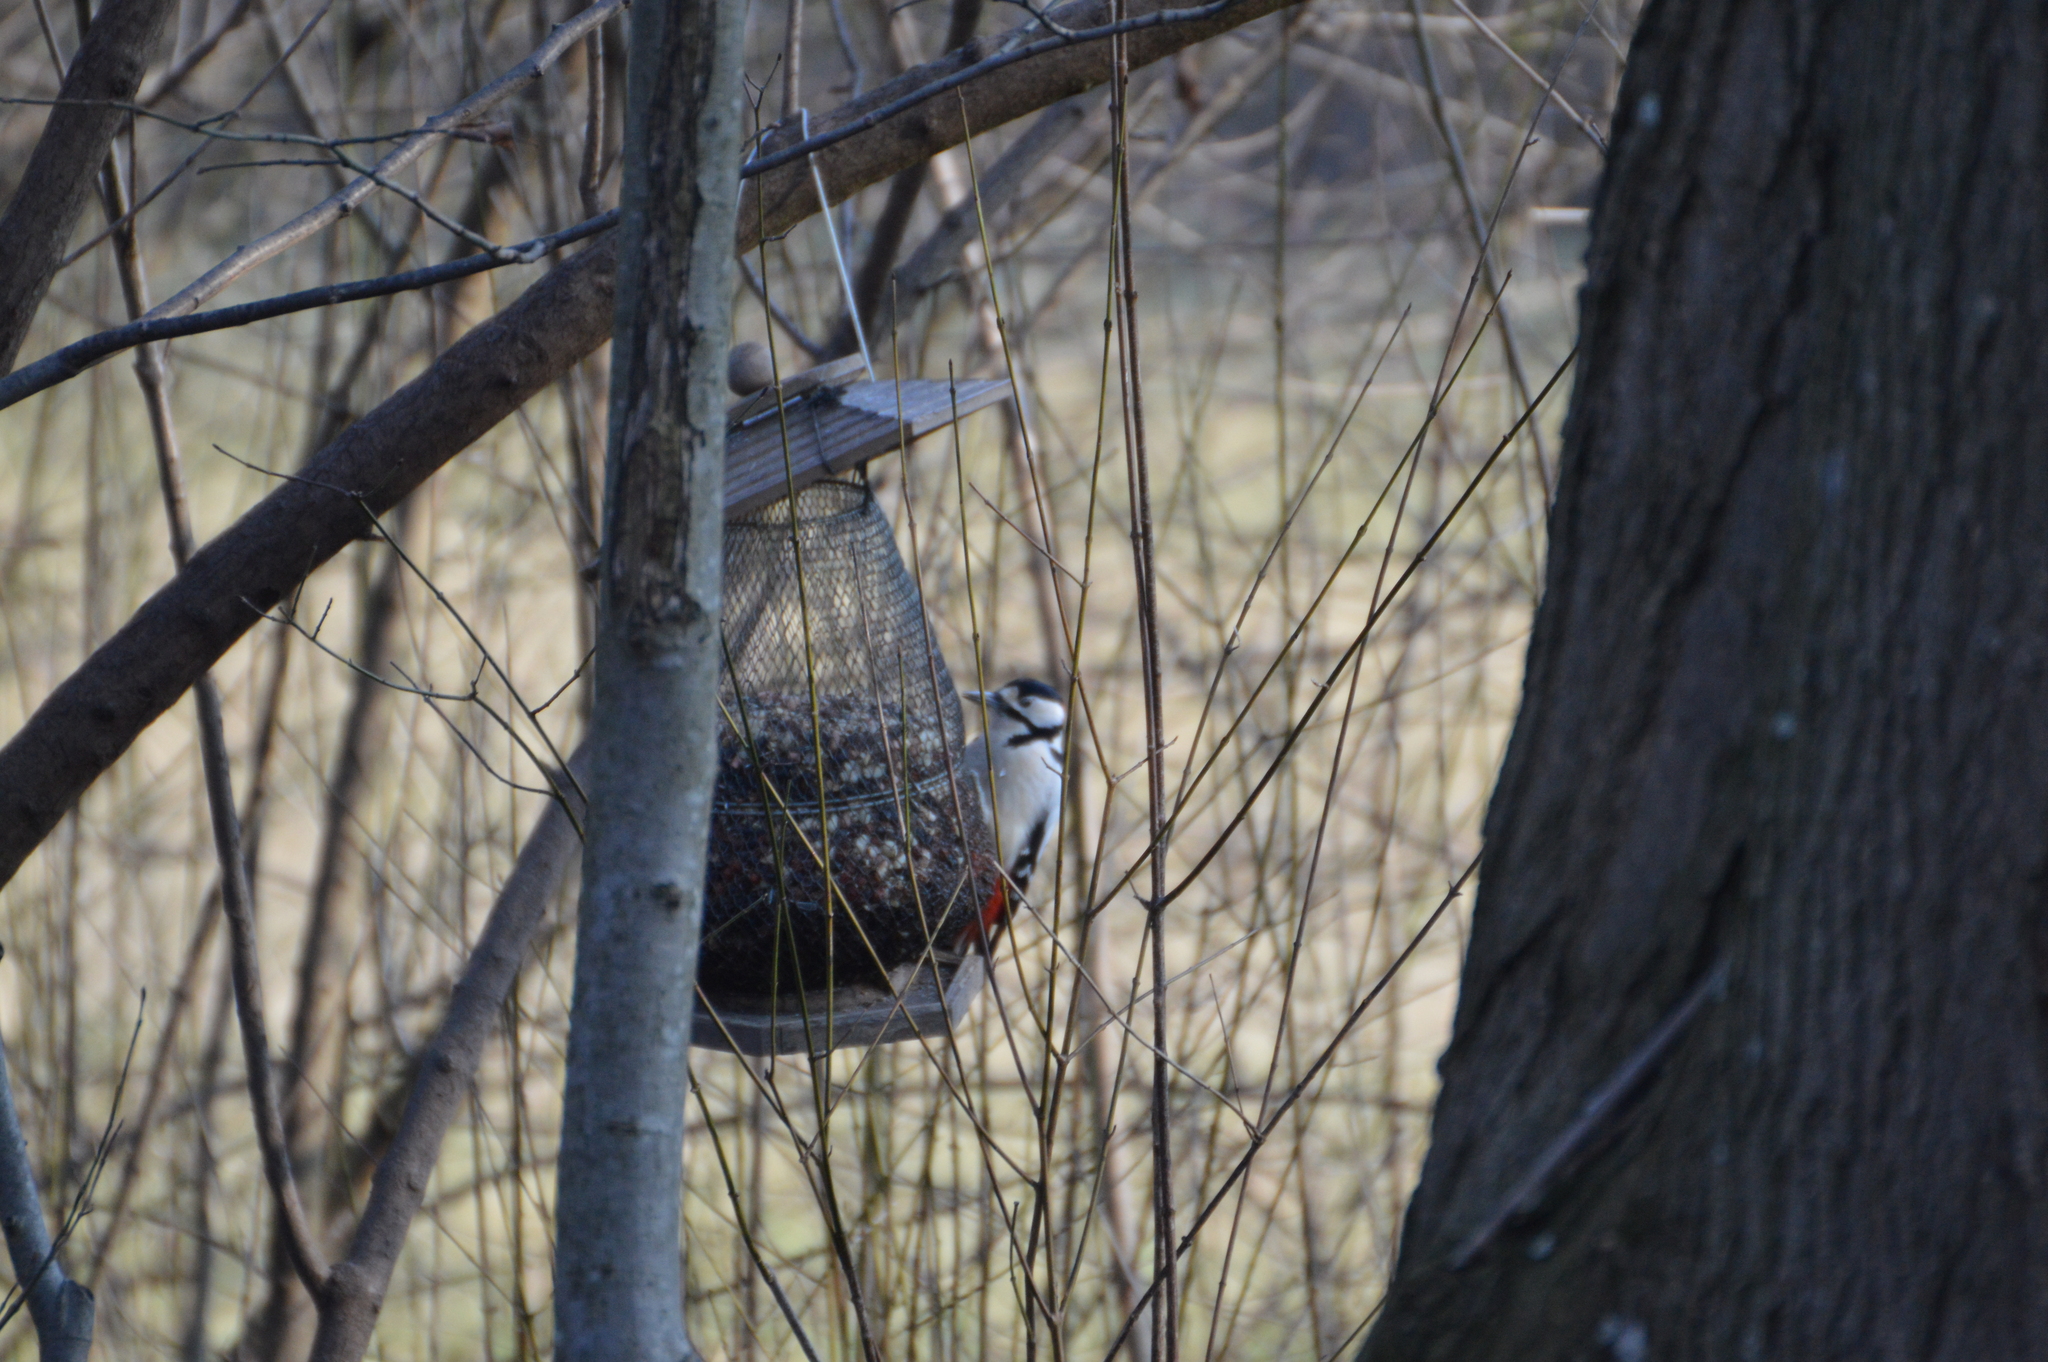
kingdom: Animalia
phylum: Chordata
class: Aves
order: Piciformes
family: Picidae
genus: Dendrocopos
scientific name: Dendrocopos major
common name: Great spotted woodpecker
